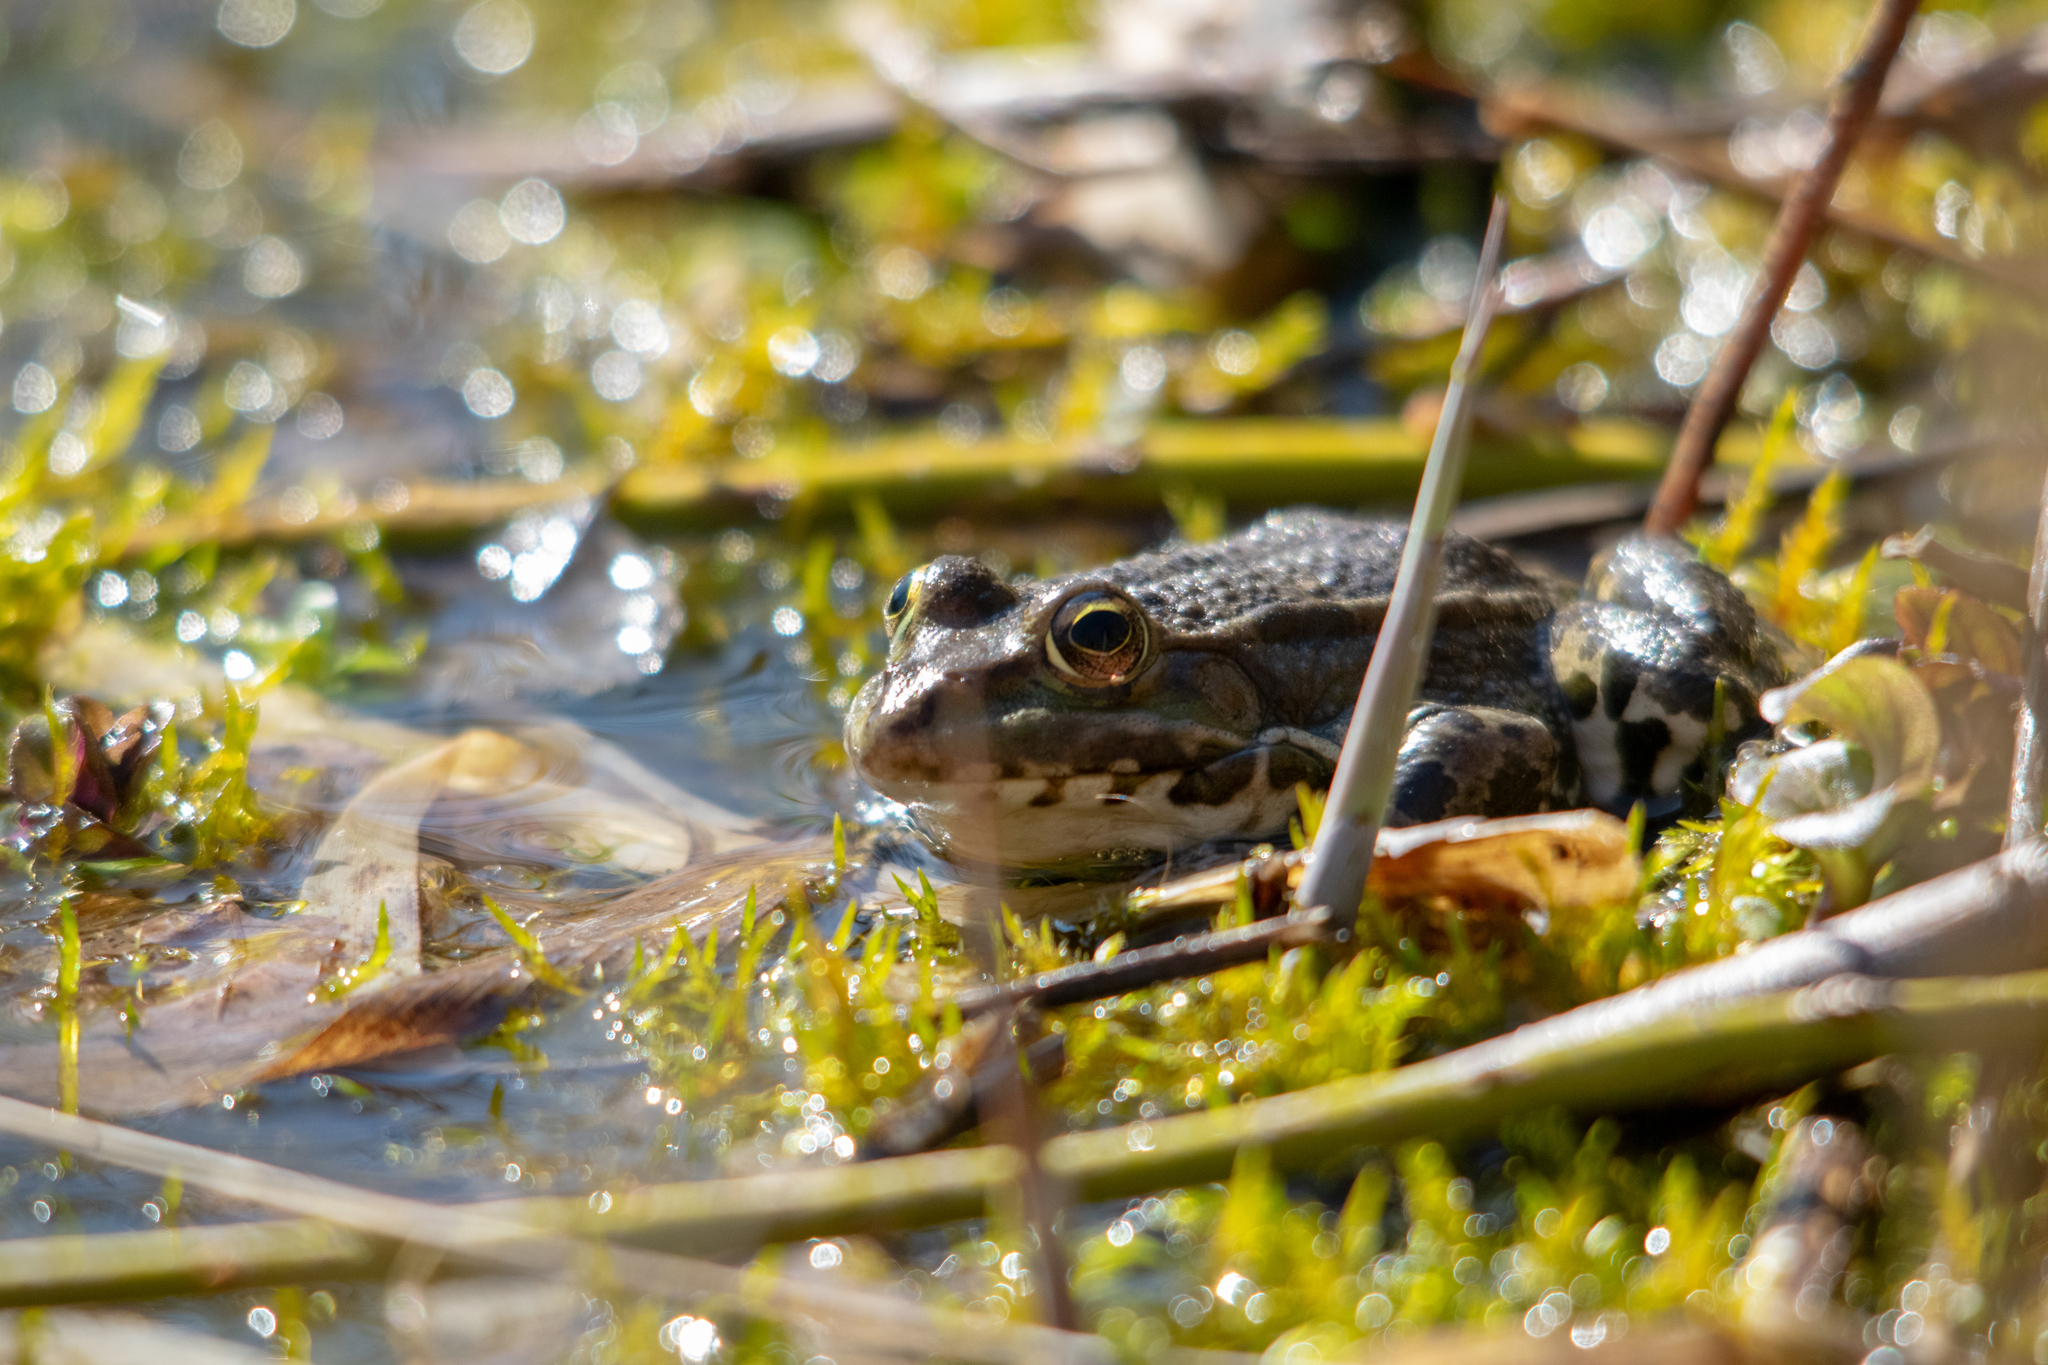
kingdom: Animalia
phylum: Chordata
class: Amphibia
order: Anura
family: Ranidae
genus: Pelophylax
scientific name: Pelophylax ridibundus
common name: Marsh frog
